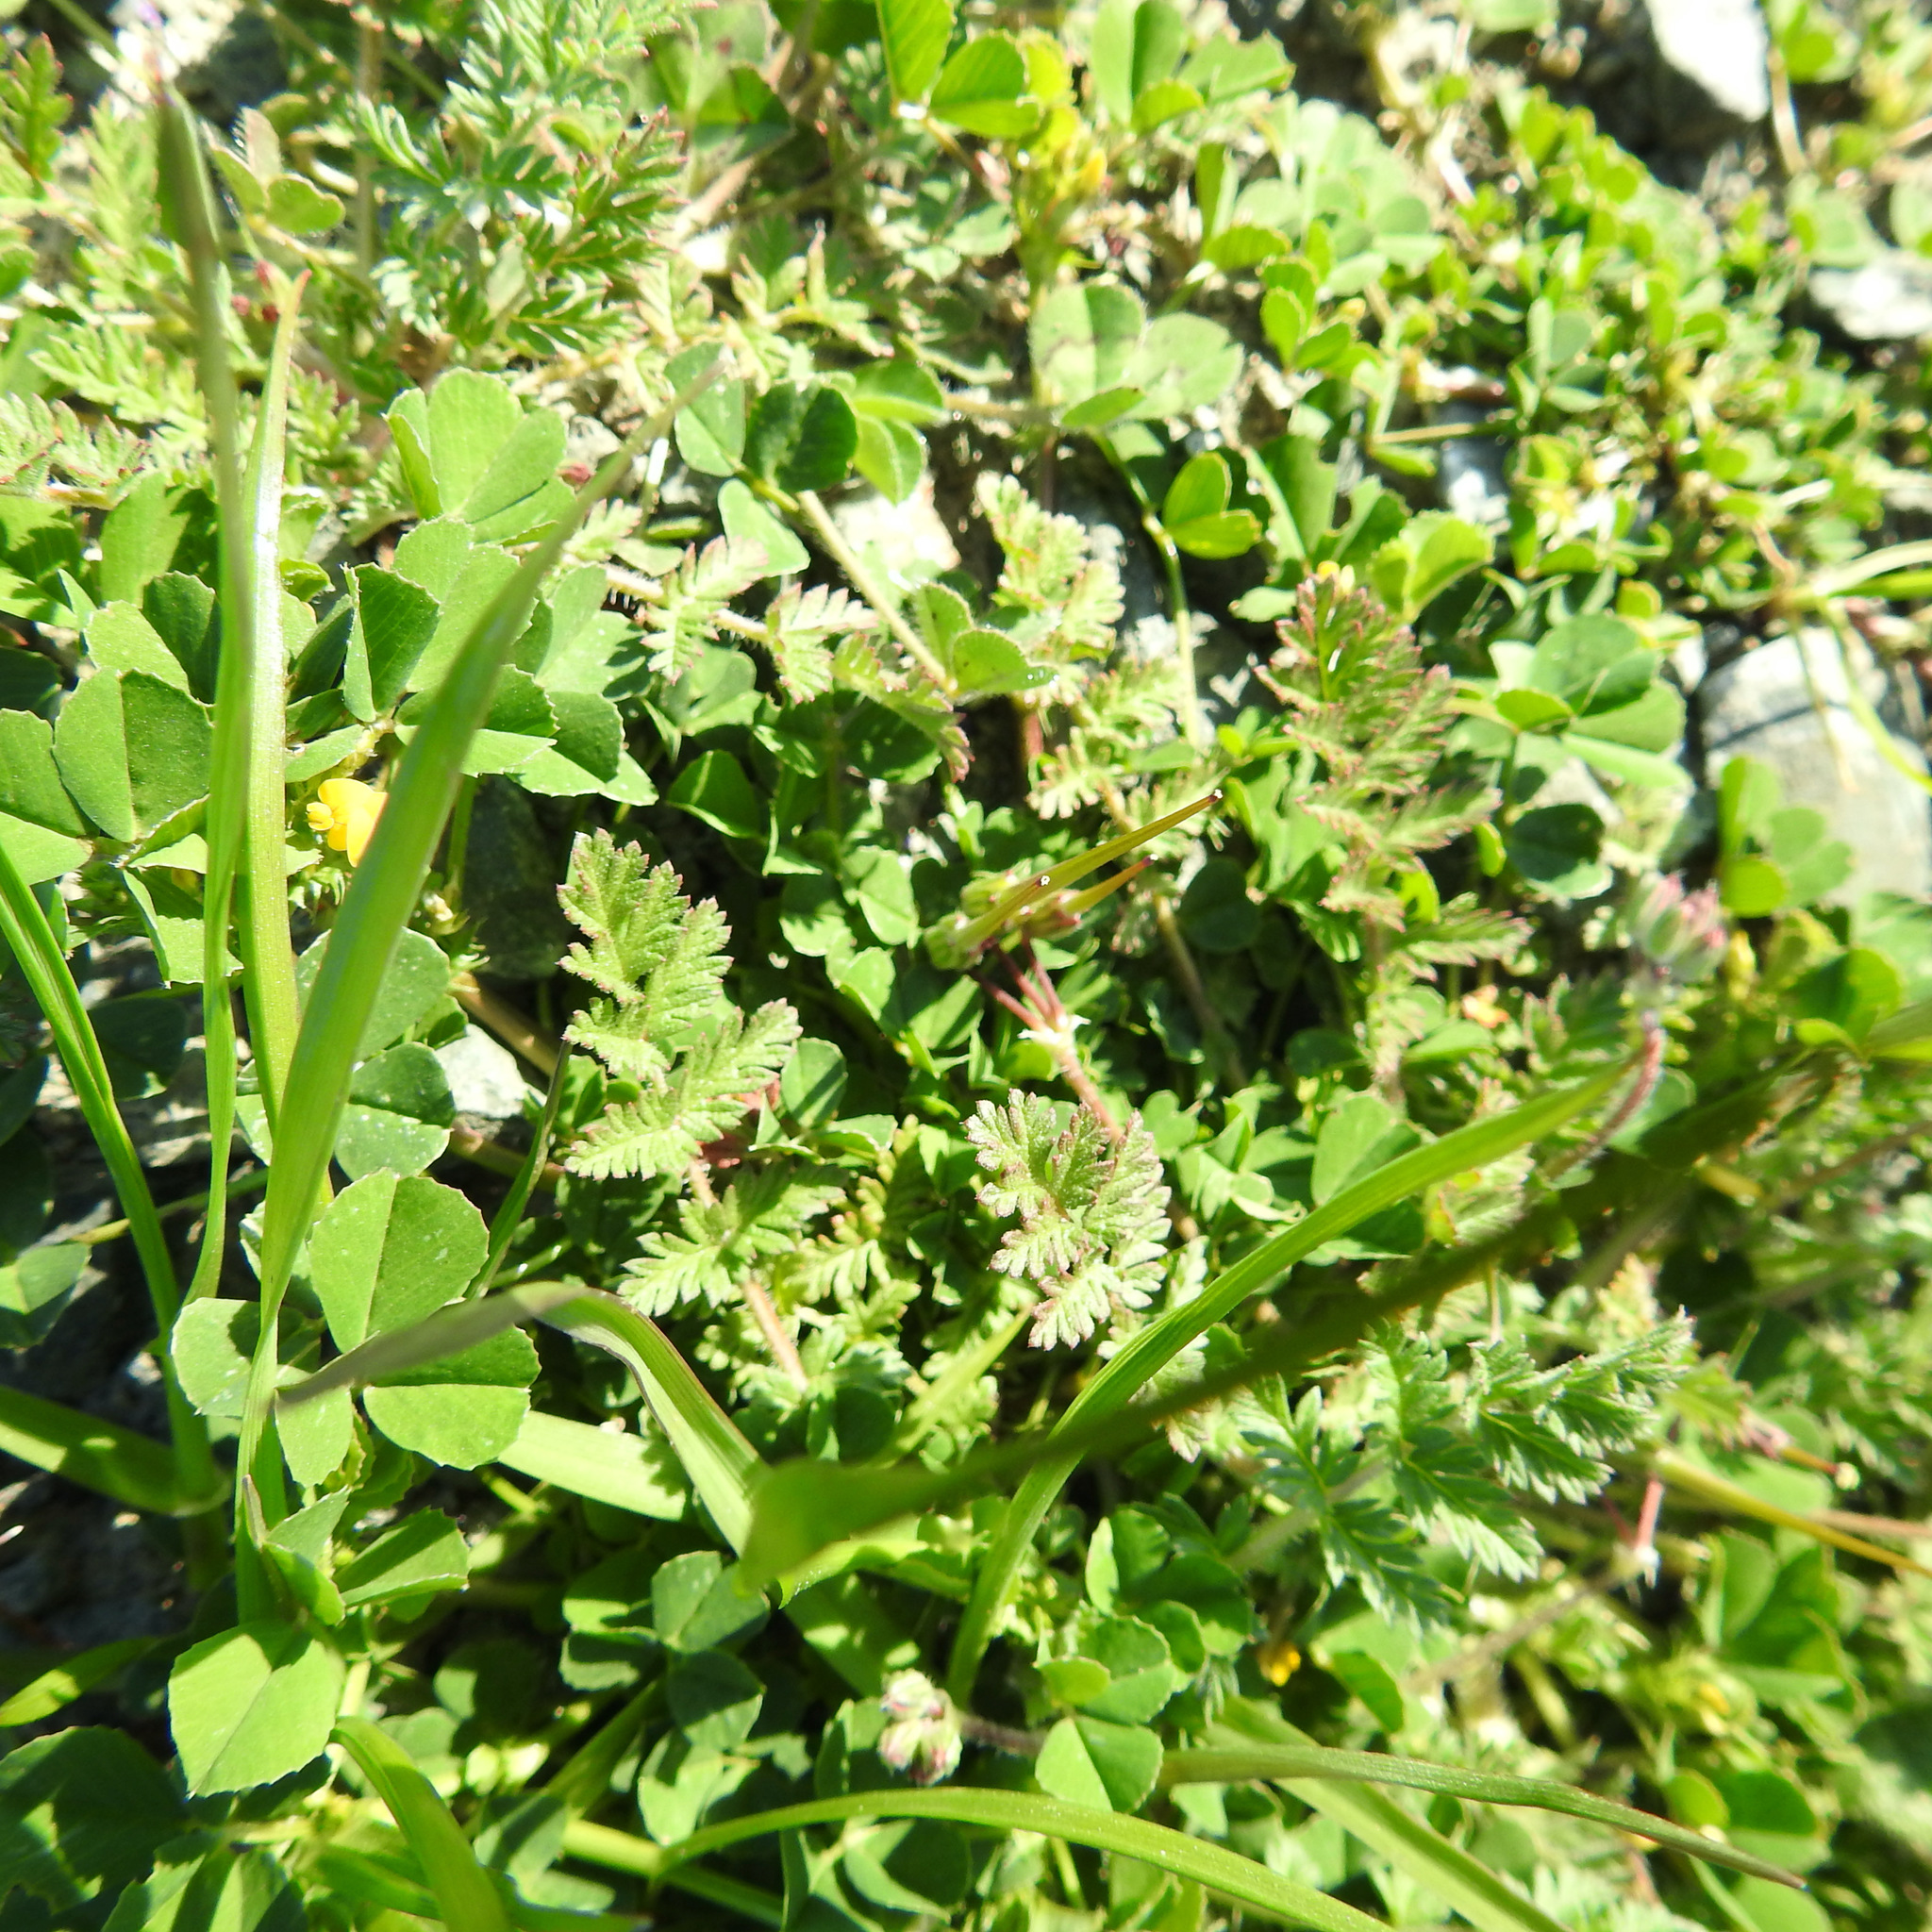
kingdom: Plantae
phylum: Tracheophyta
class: Magnoliopsida
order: Fabales
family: Fabaceae
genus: Medicago
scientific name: Medicago polymorpha
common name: Burclover
